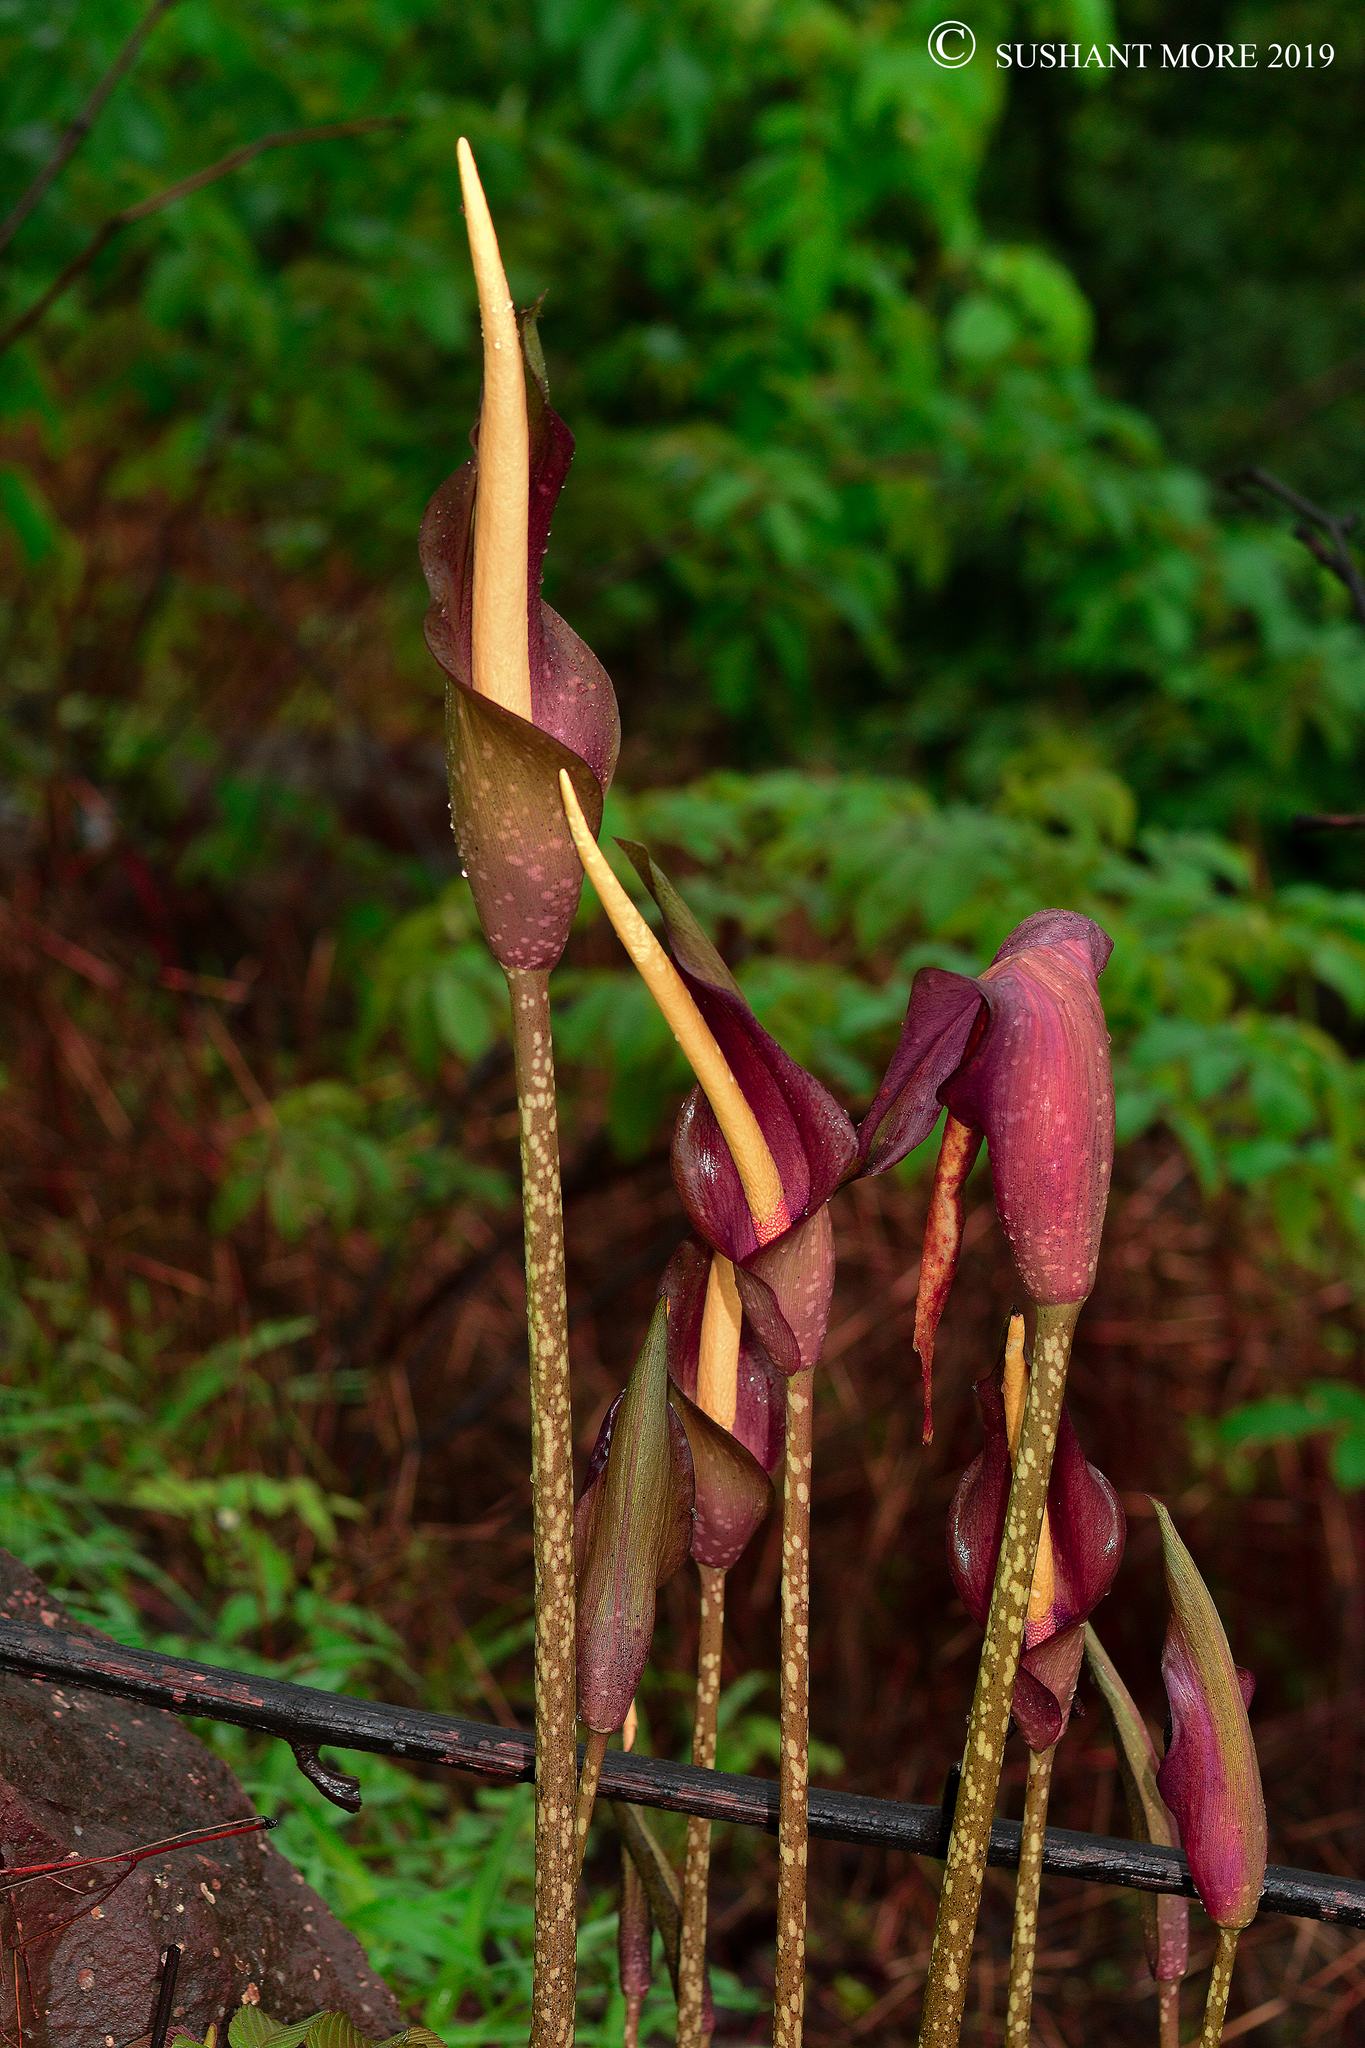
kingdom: Plantae
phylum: Tracheophyta
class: Liliopsida
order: Alismatales
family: Araceae
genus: Amorphophallus
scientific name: Amorphophallus commutatus
